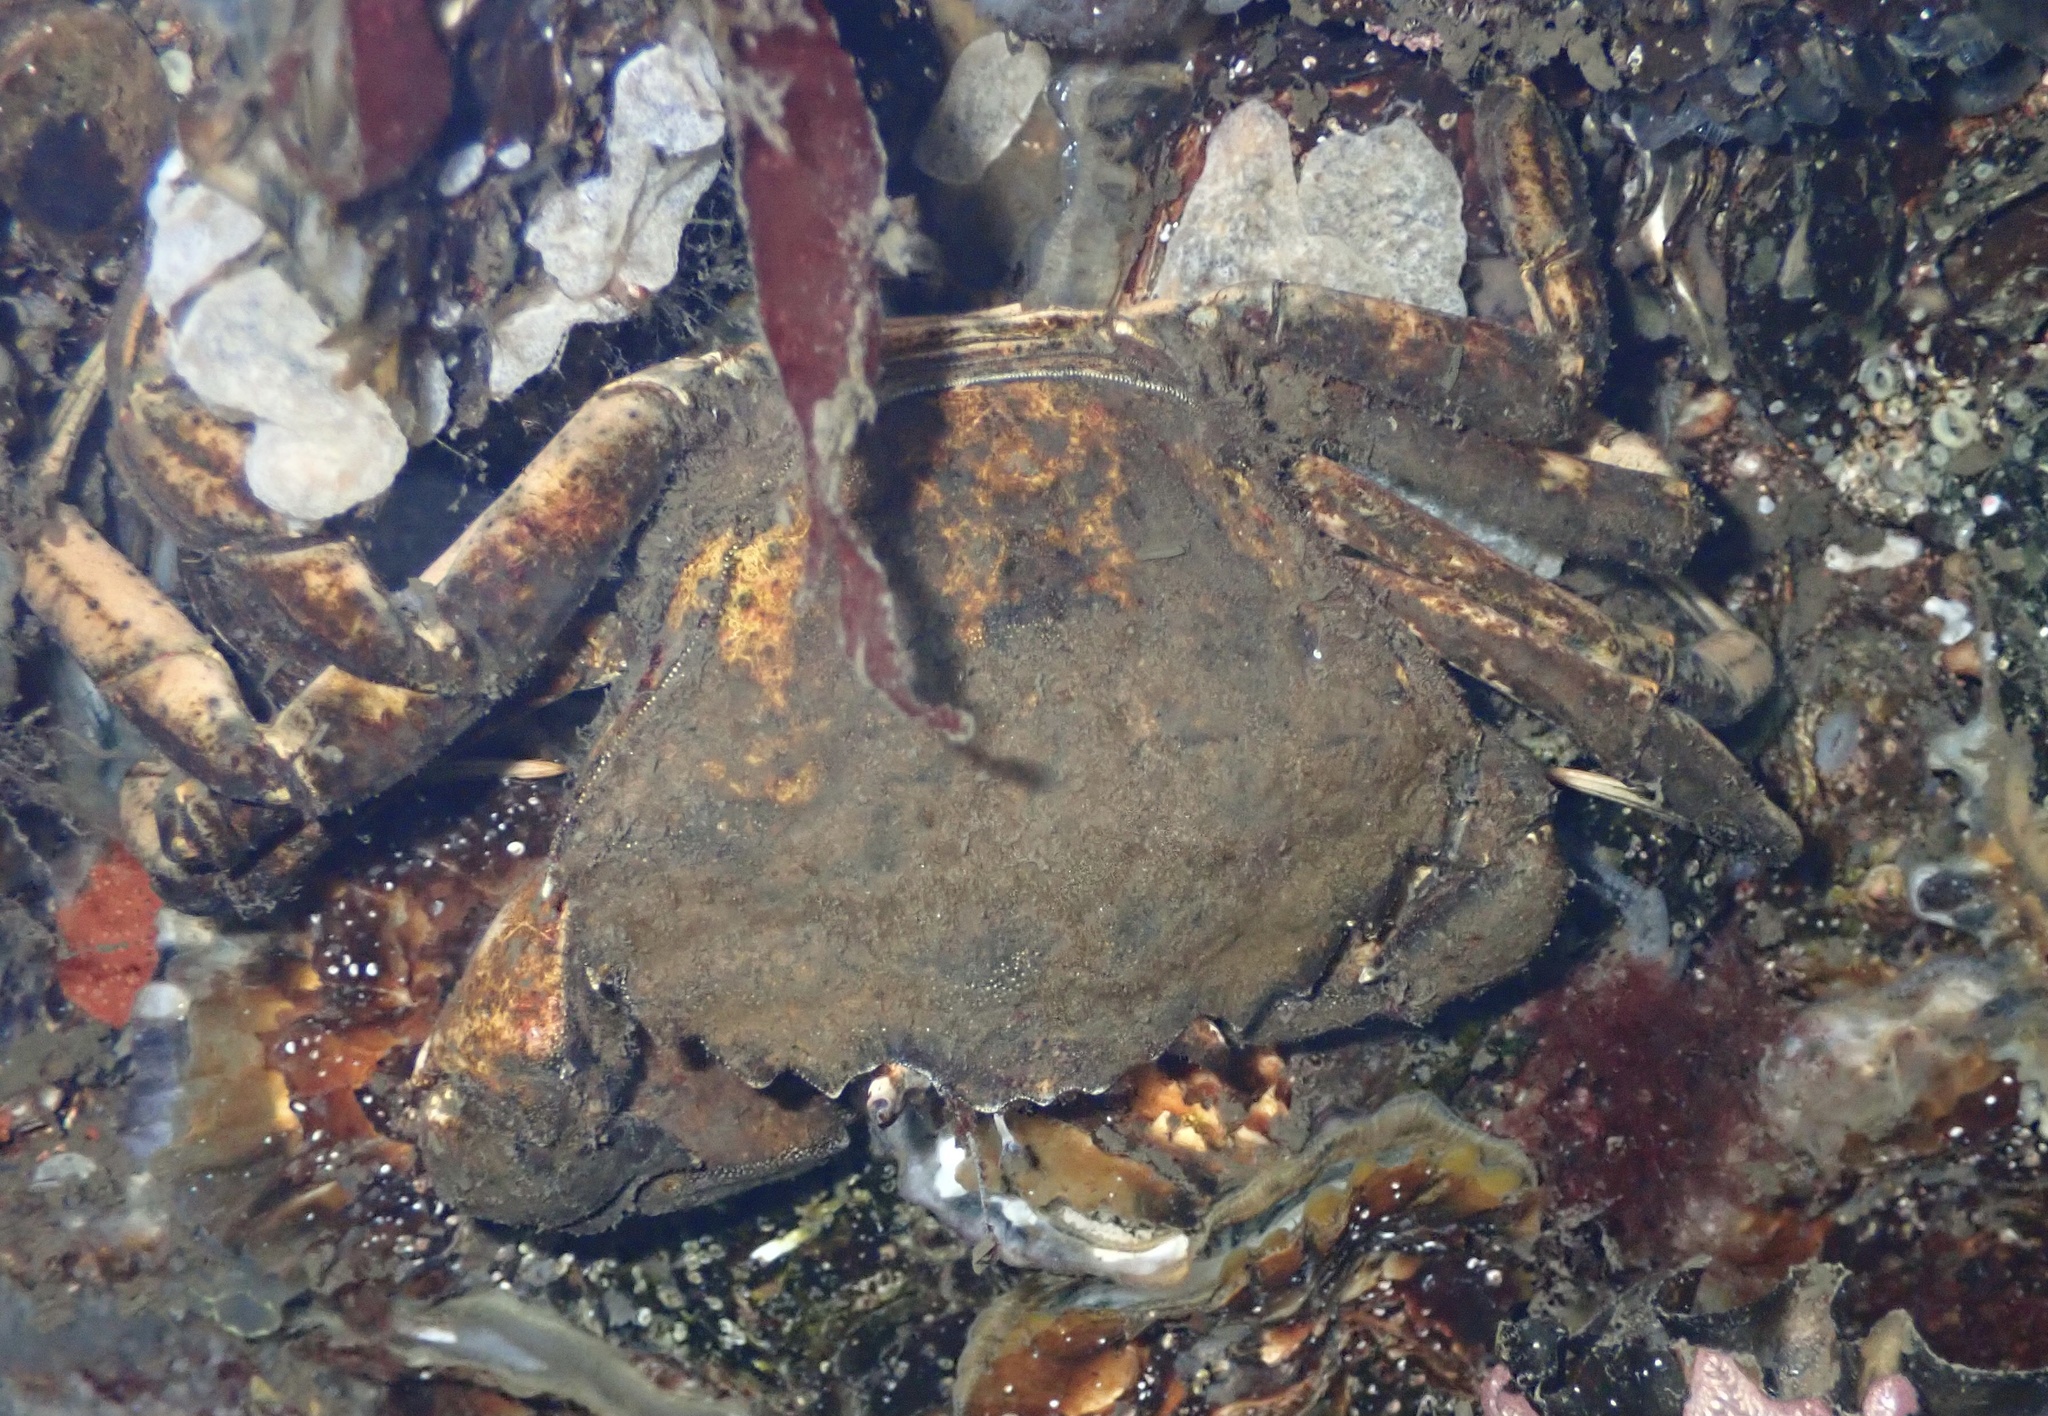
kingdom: Animalia
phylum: Arthropoda
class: Malacostraca
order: Decapoda
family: Carcinidae
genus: Carcinus
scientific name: Carcinus maenas
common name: European green crab
